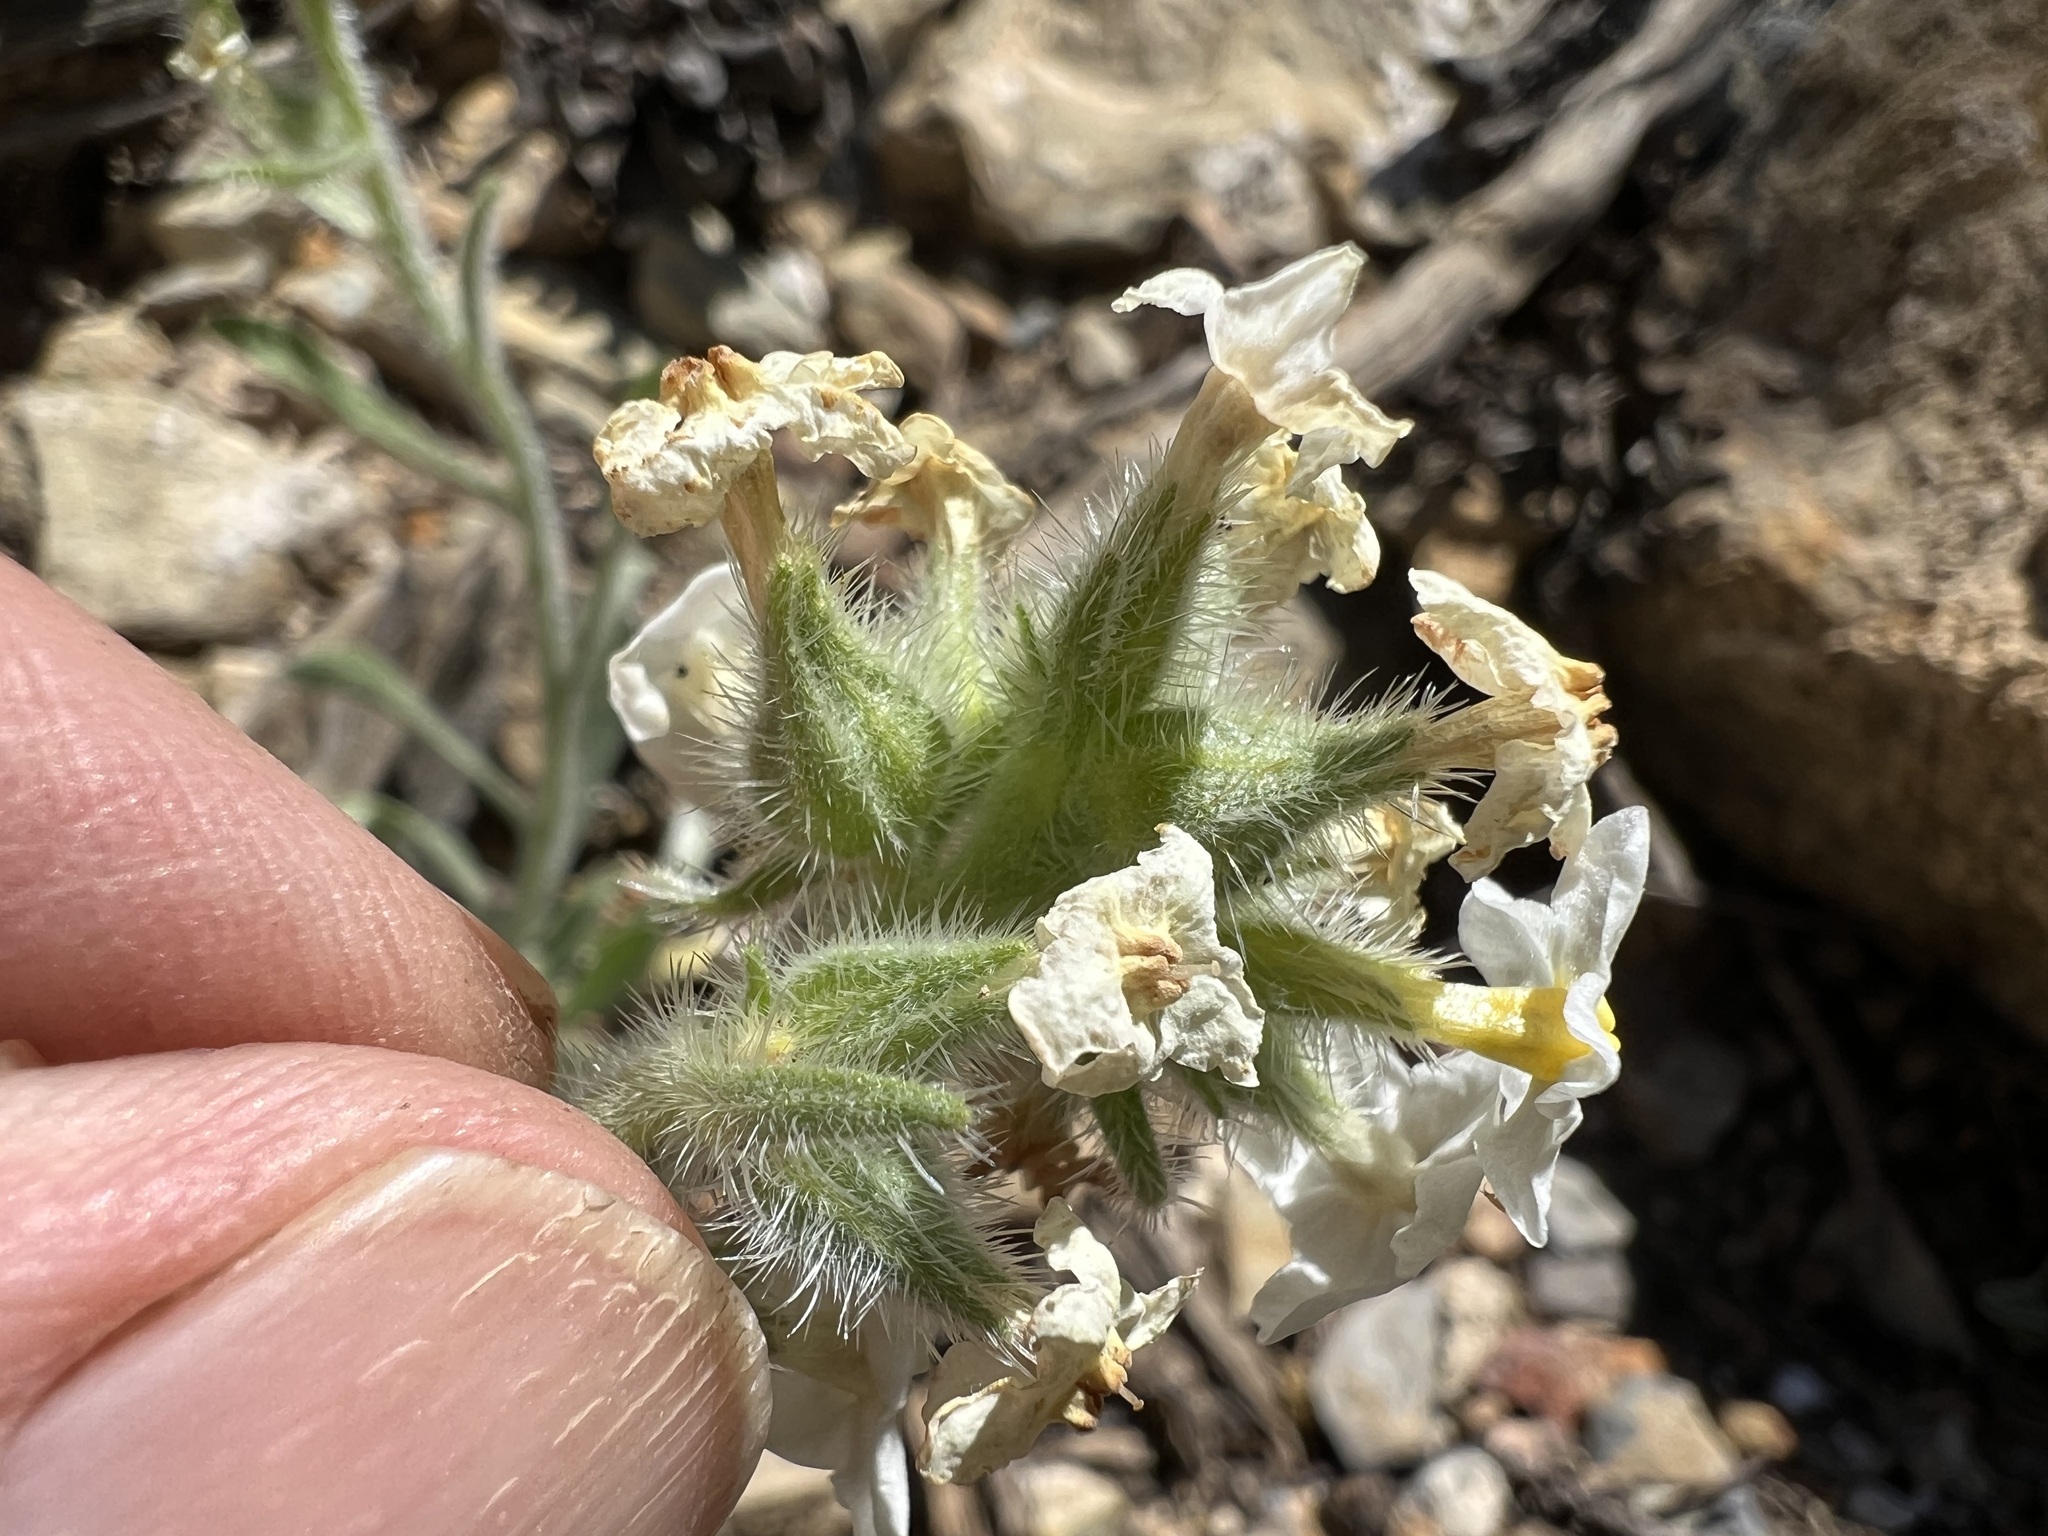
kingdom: Plantae
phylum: Tracheophyta
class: Magnoliopsida
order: Boraginales
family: Boraginaceae
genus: Oreocarya
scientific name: Oreocarya flavoculata
